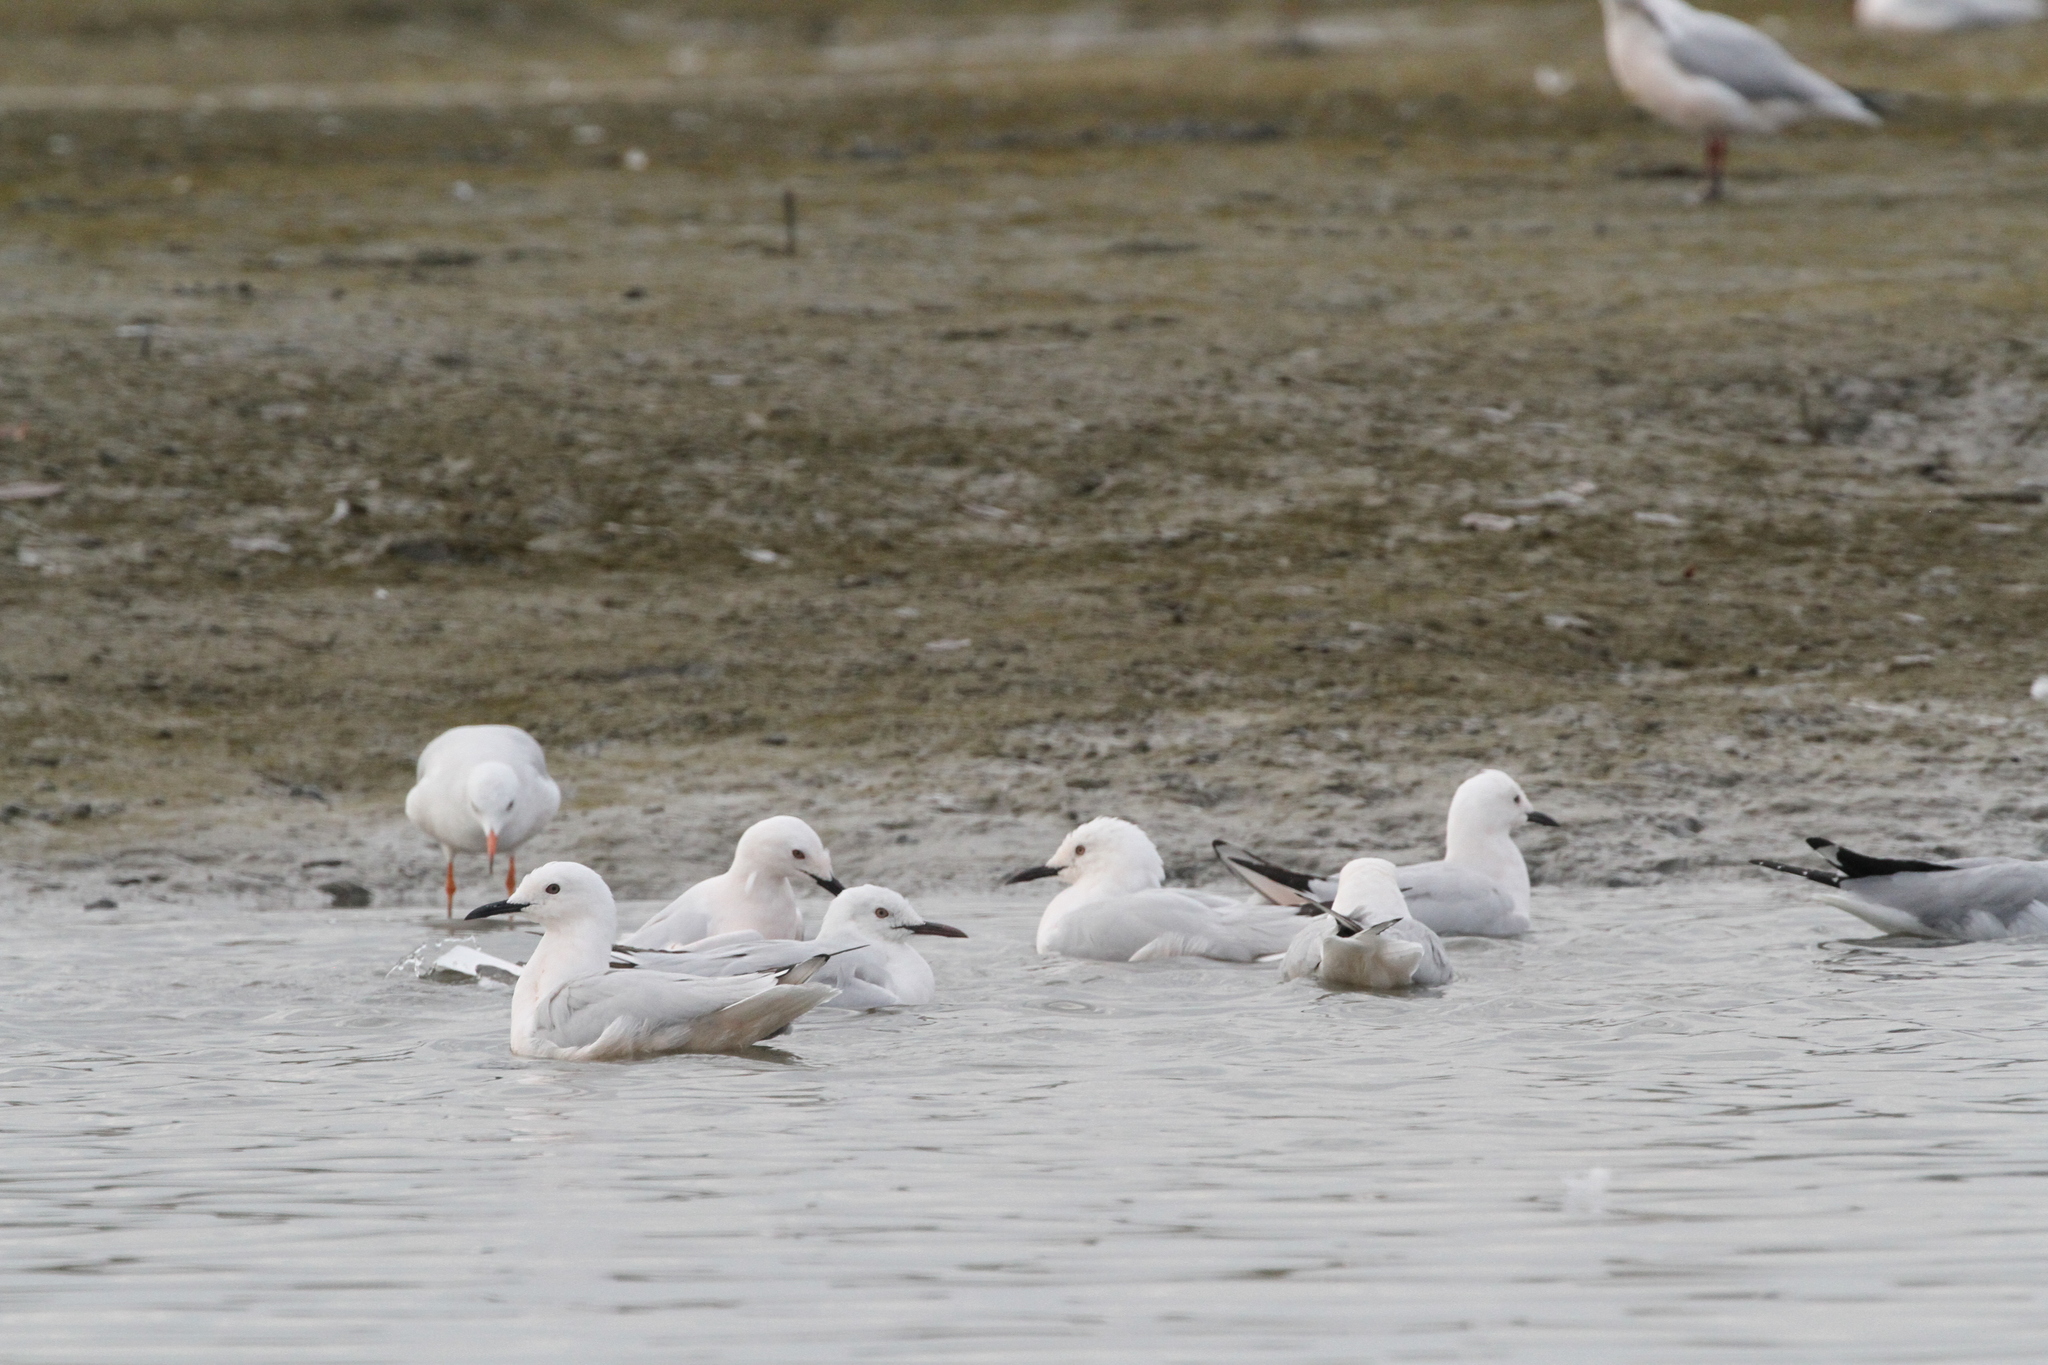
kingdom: Animalia
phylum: Chordata
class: Aves
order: Charadriiformes
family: Laridae
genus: Chroicocephalus
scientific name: Chroicocephalus genei
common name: Slender-billed gull
